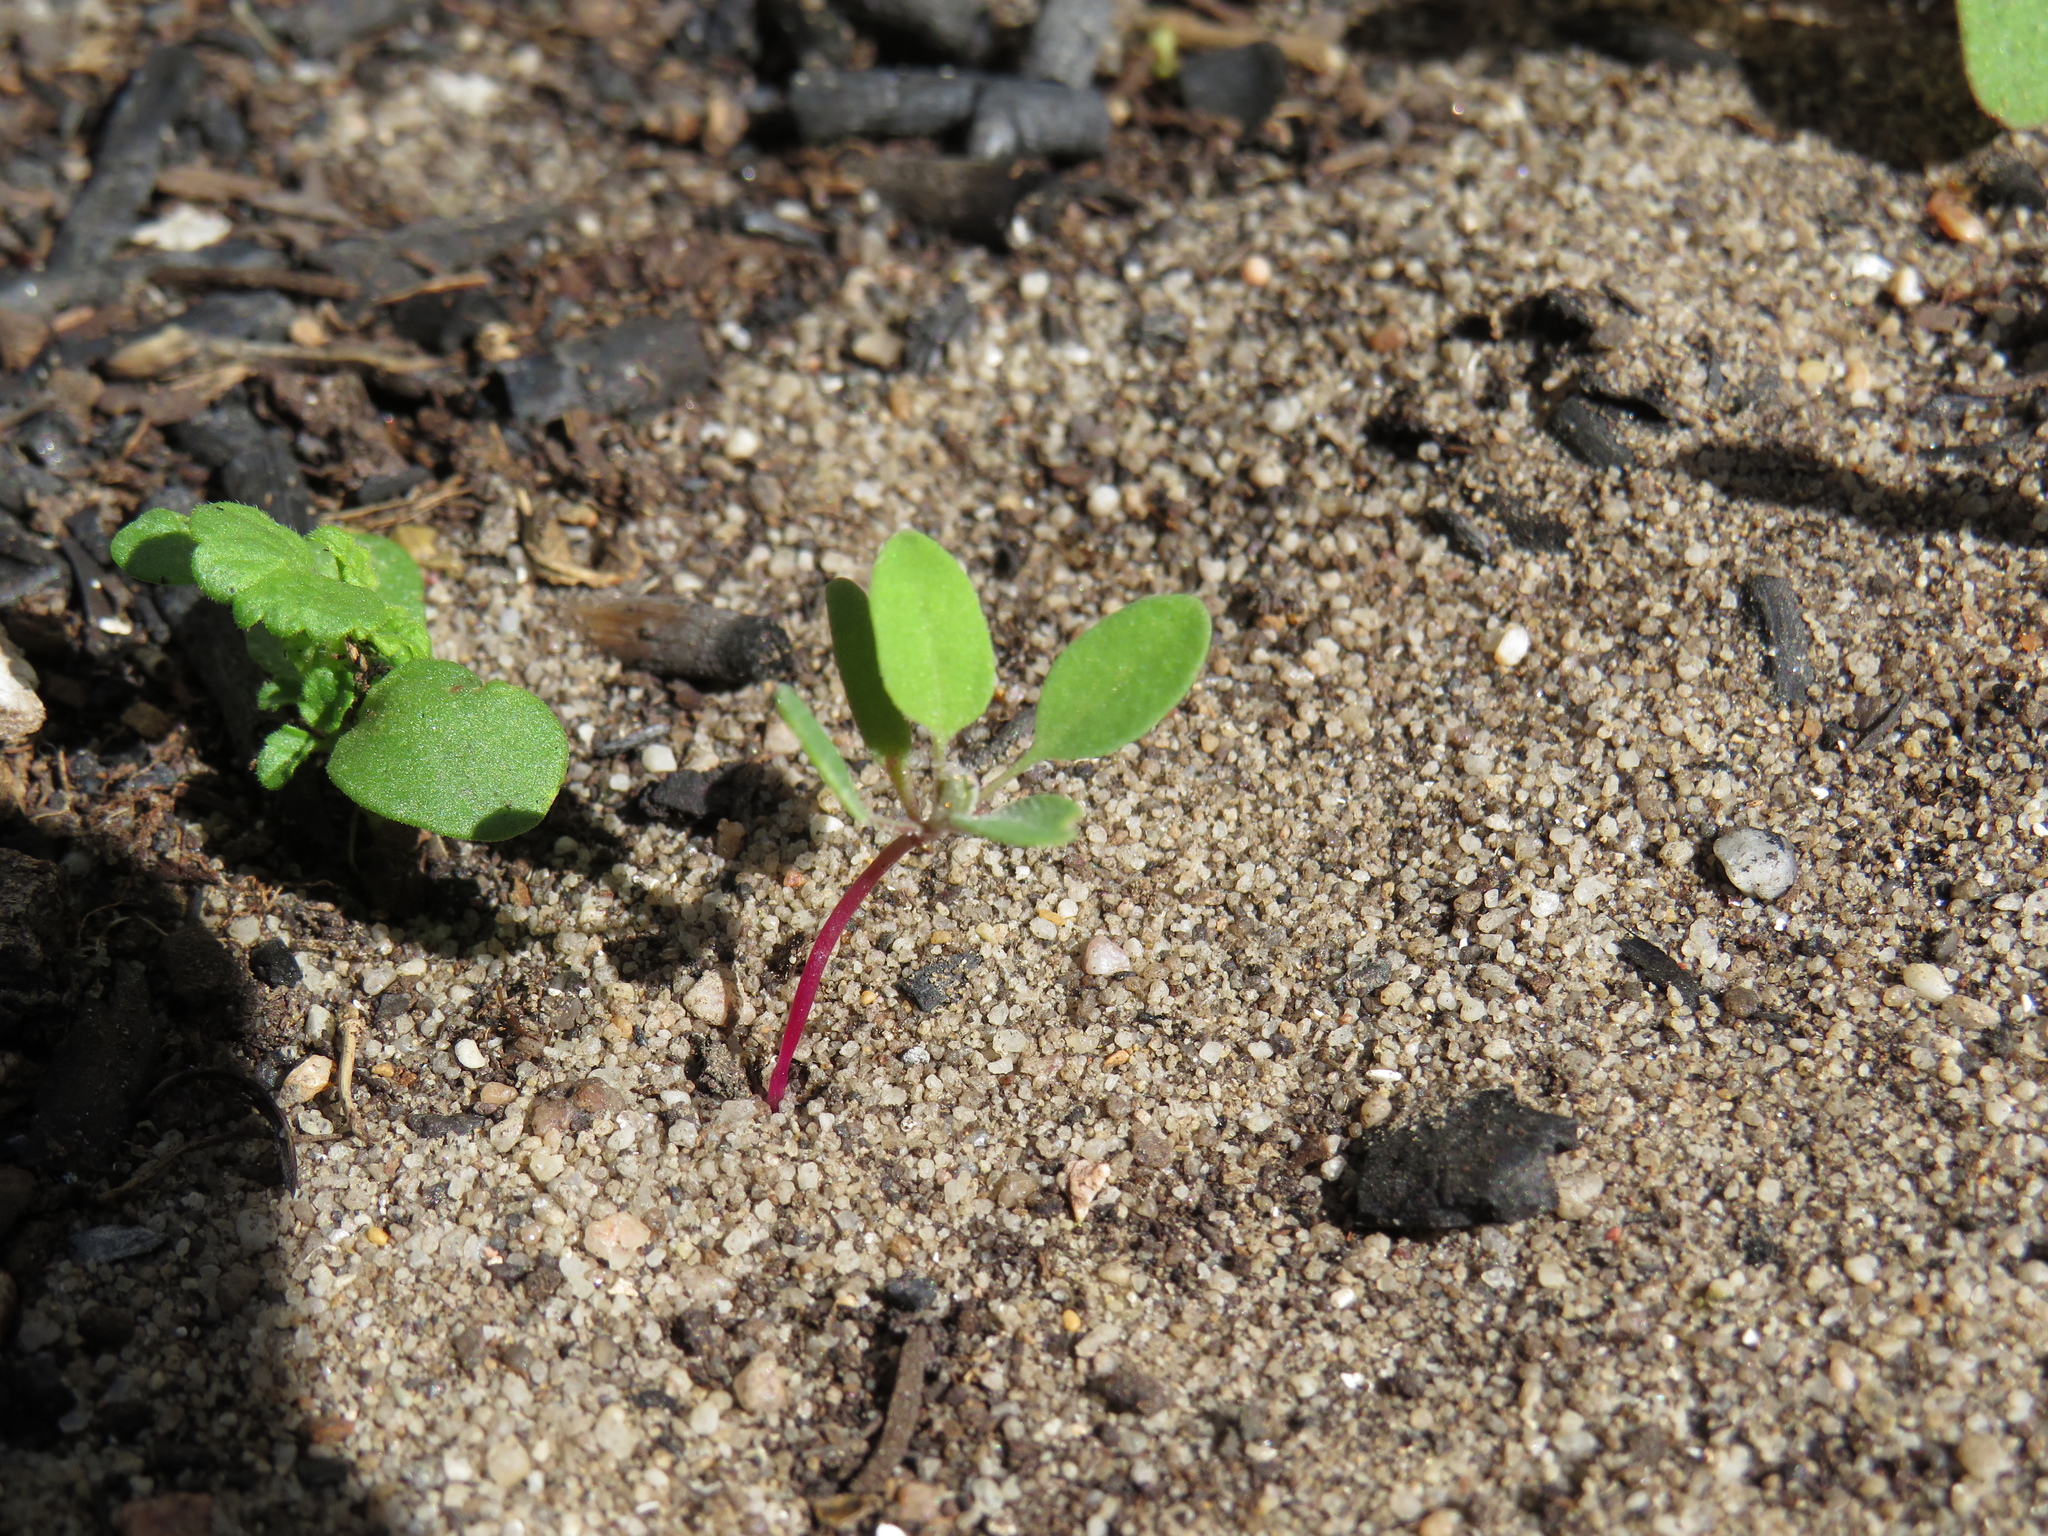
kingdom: Plantae
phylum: Tracheophyta
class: Magnoliopsida
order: Caryophyllales
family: Amaranthaceae
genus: Chenopodium
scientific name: Chenopodium album
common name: Fat-hen
